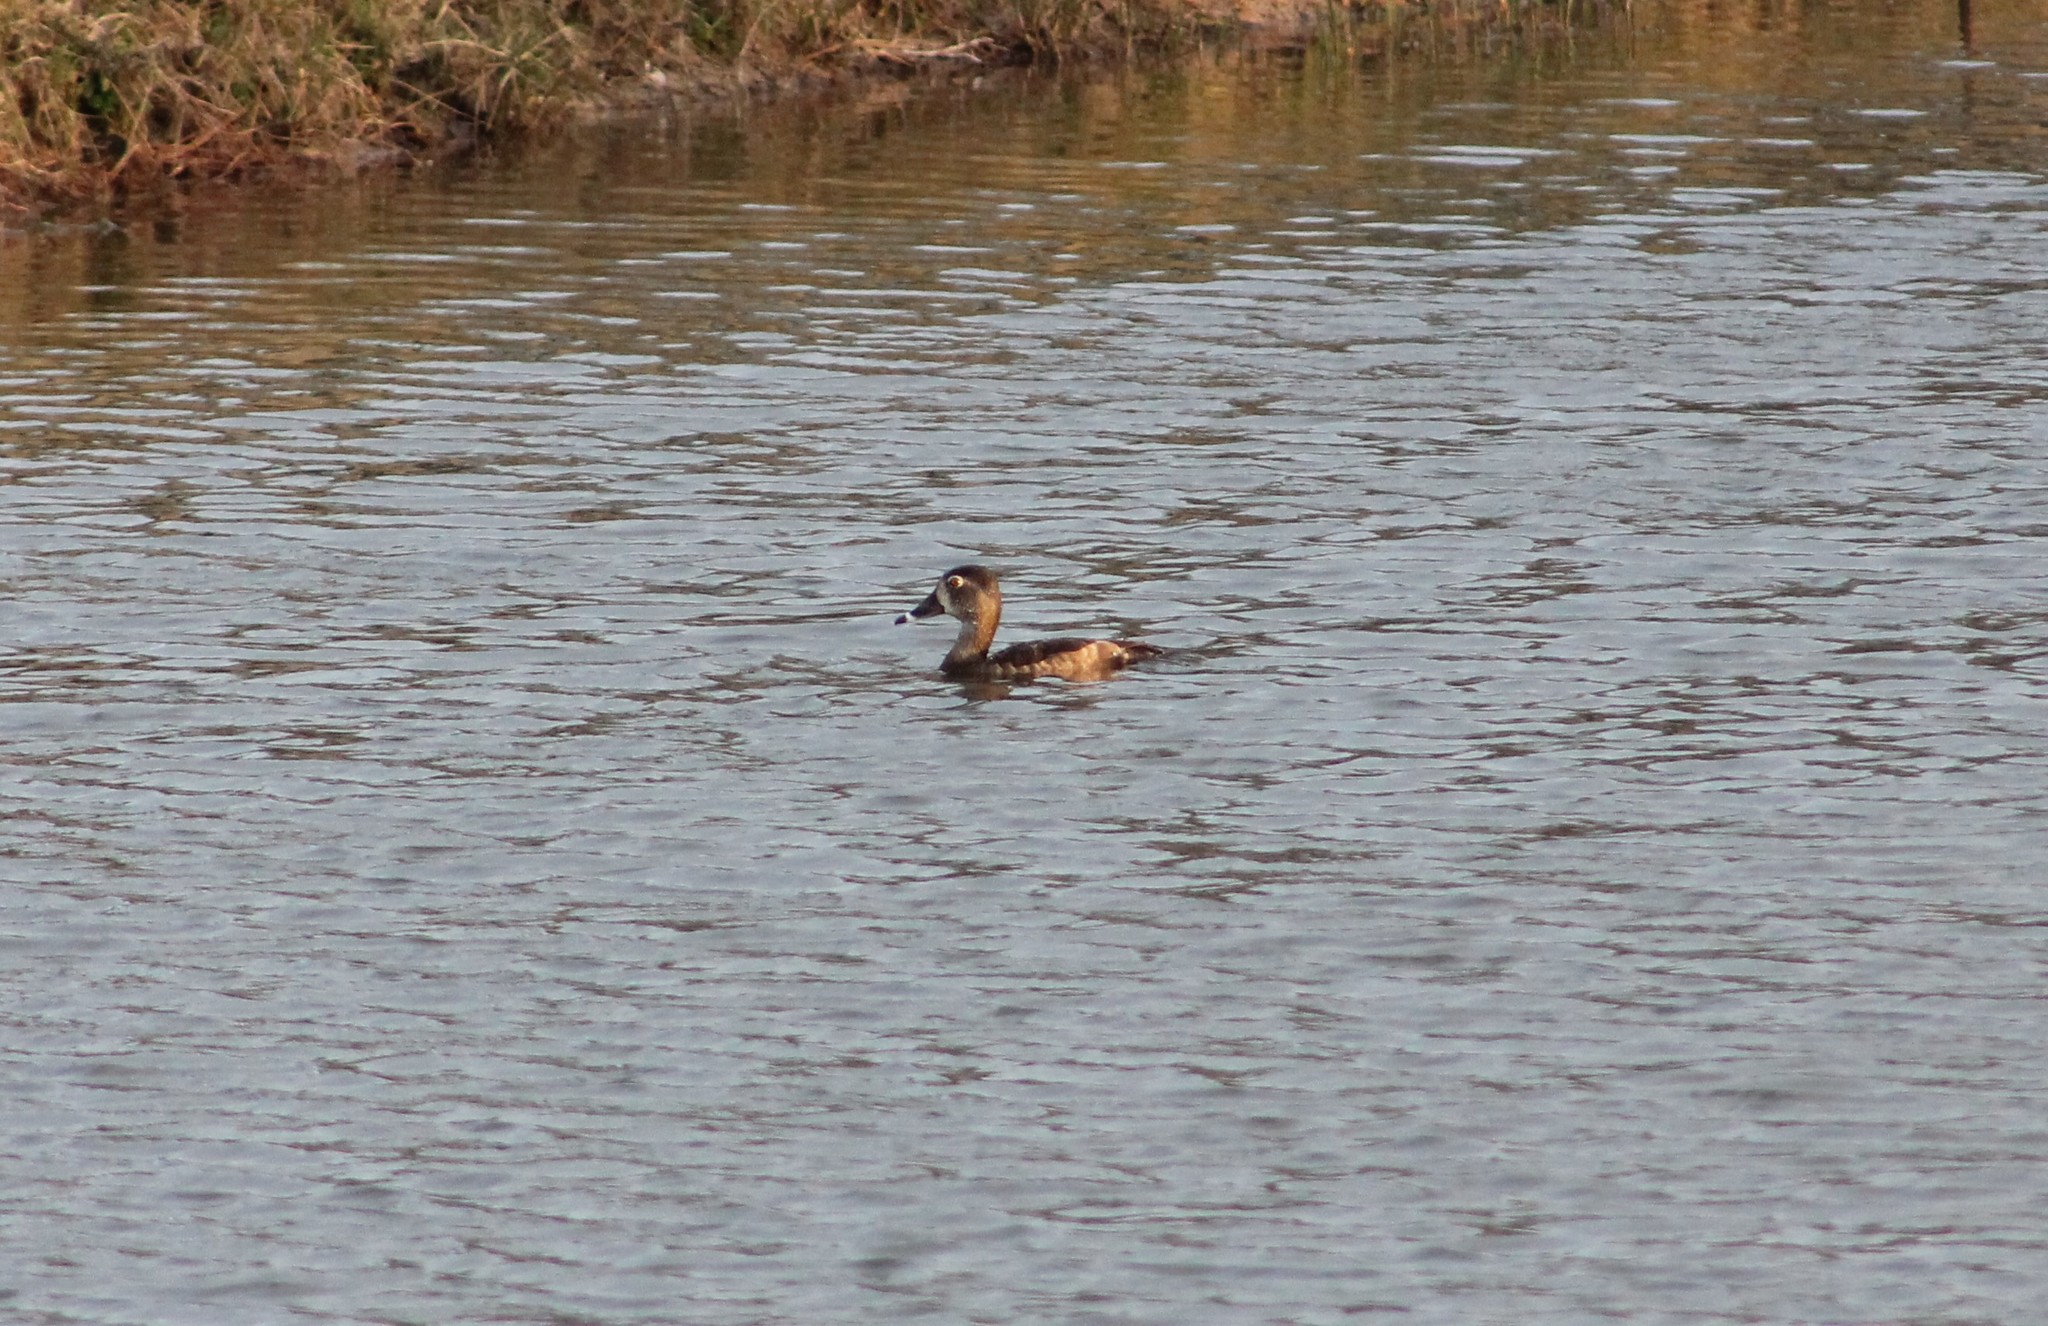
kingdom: Animalia
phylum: Chordata
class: Aves
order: Anseriformes
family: Anatidae
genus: Aythya
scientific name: Aythya collaris
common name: Ring-necked duck
